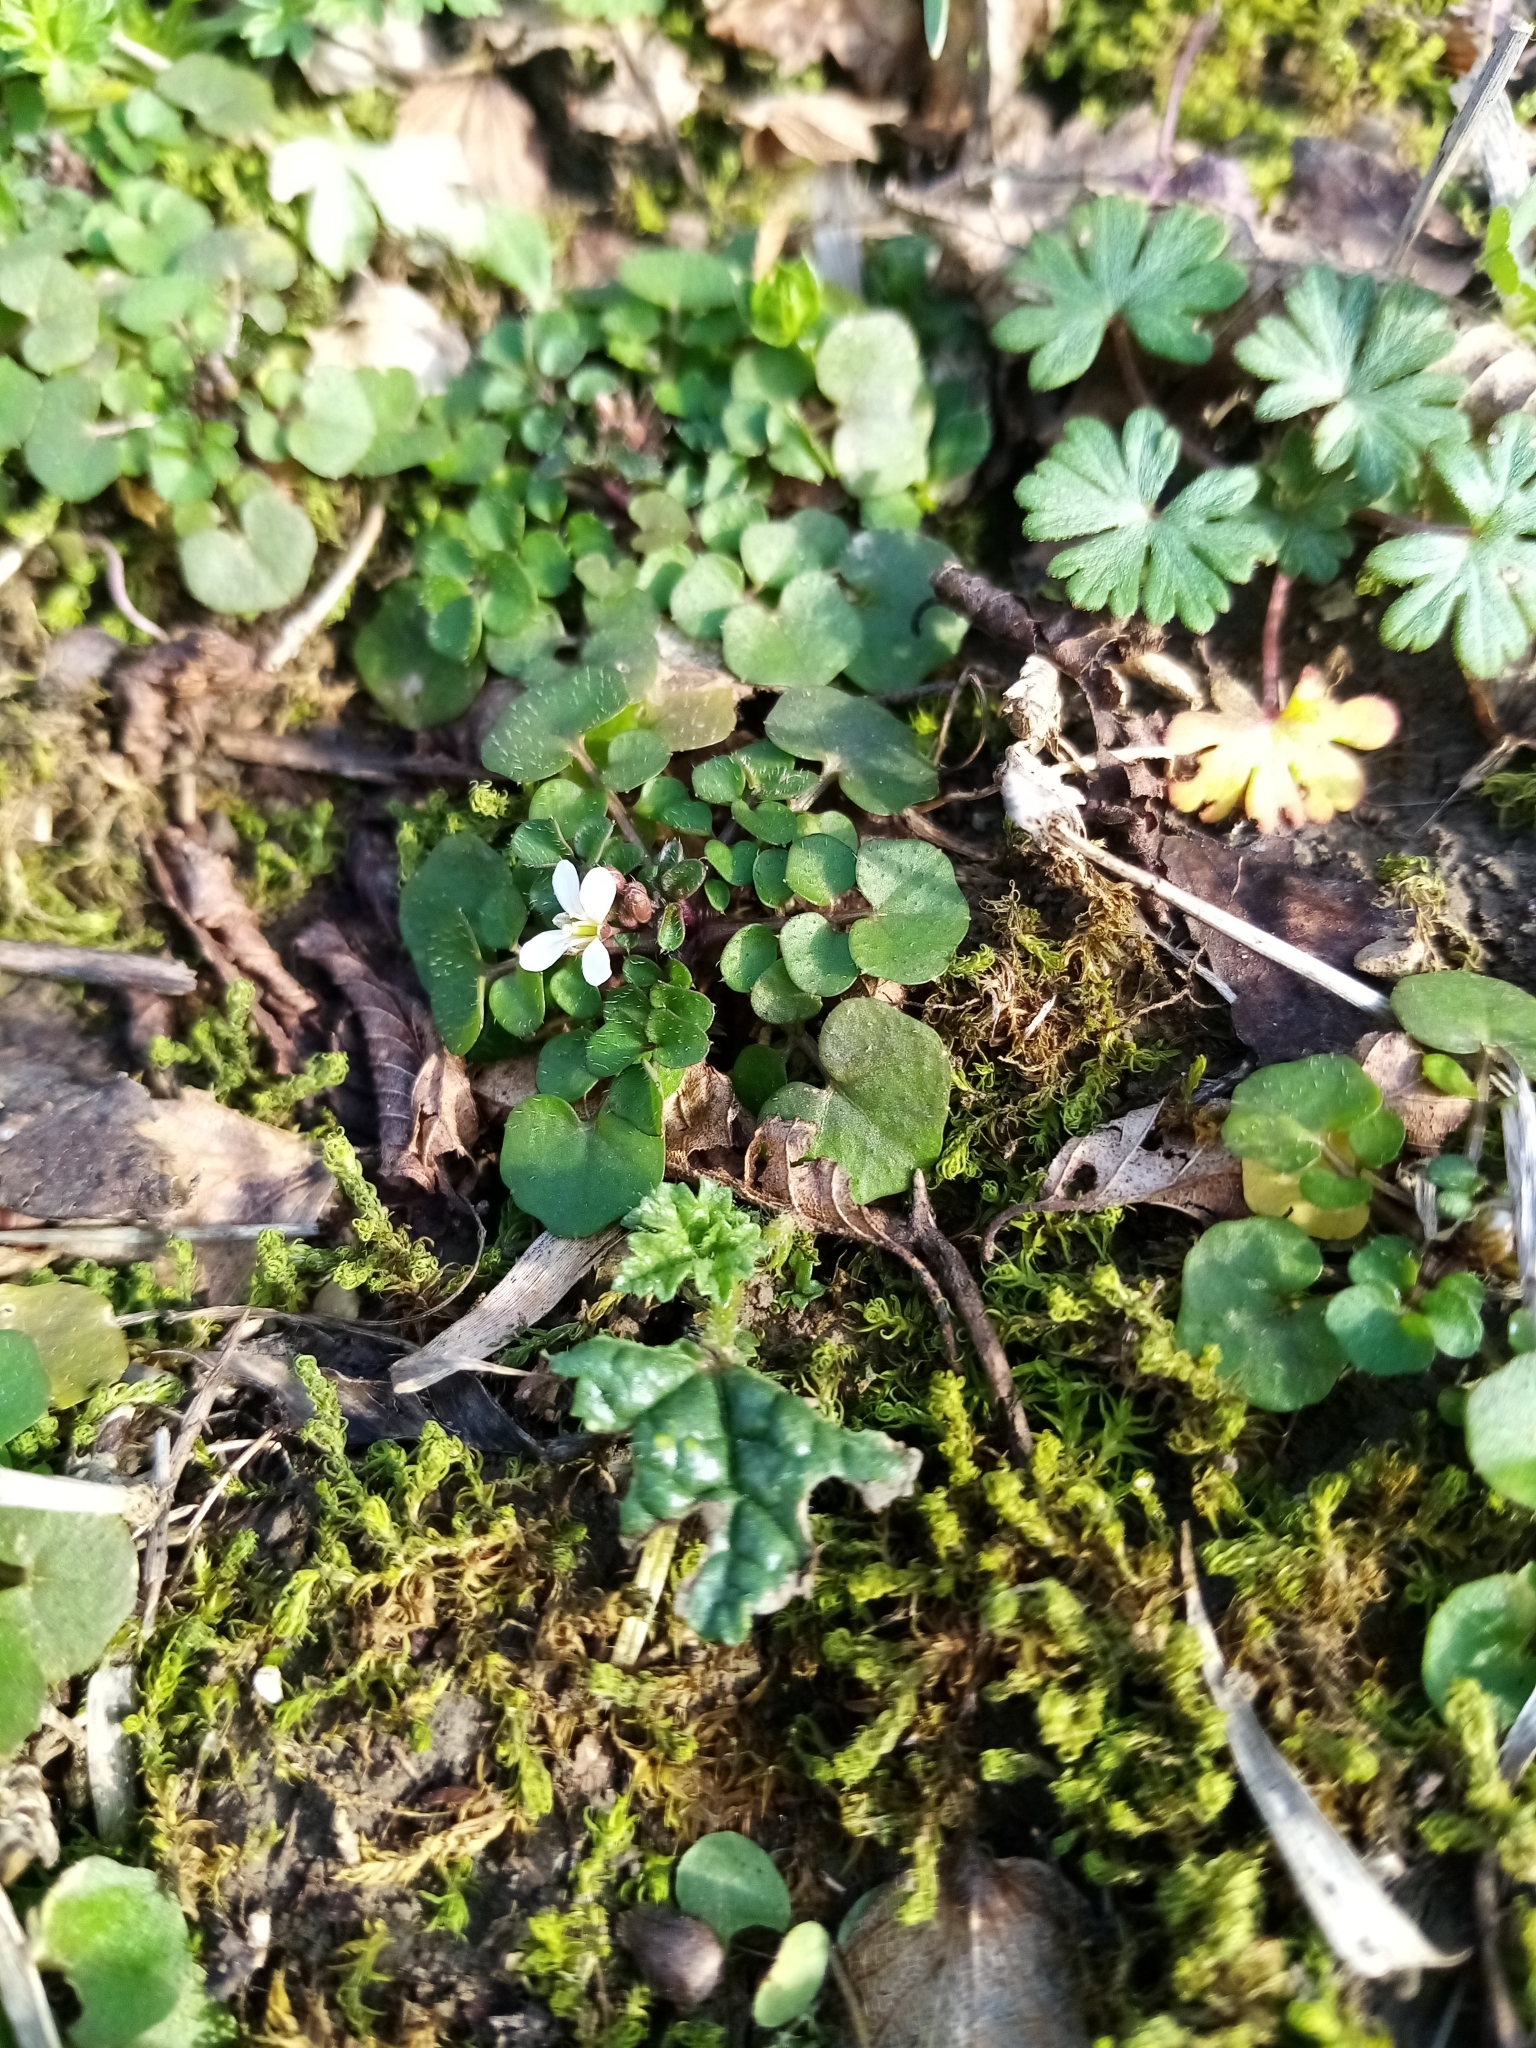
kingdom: Plantae
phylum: Tracheophyta
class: Magnoliopsida
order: Brassicales
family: Brassicaceae
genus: Cardamine
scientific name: Cardamine hirsuta
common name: Hairy bittercress
